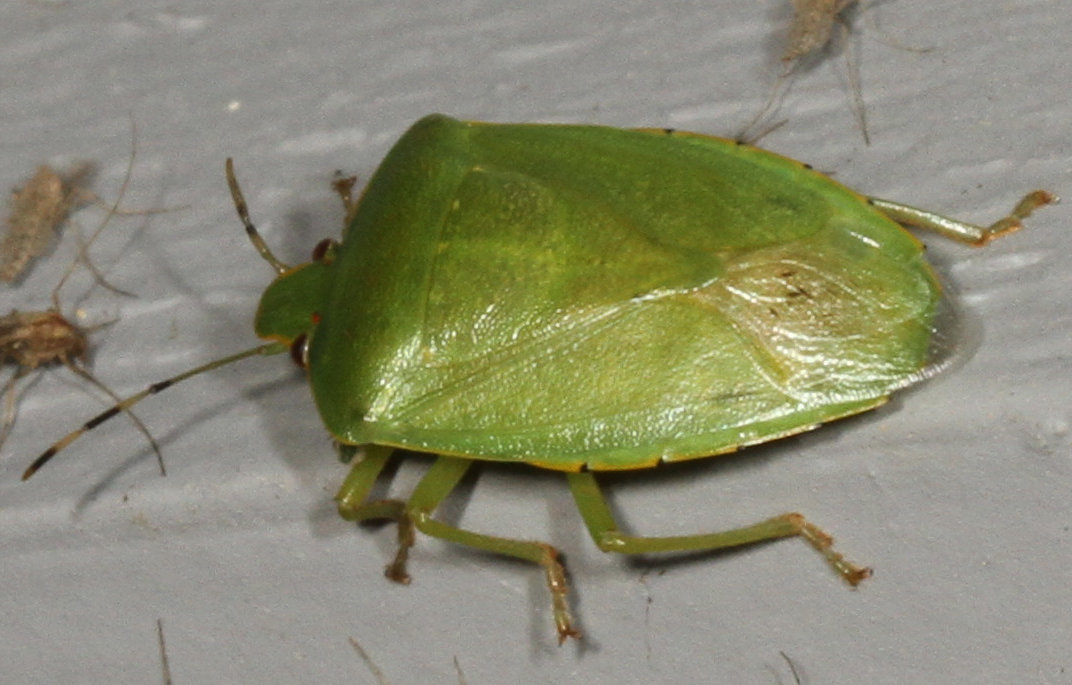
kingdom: Animalia
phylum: Arthropoda
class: Insecta
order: Hemiptera
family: Pentatomidae
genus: Chinavia
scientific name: Chinavia hilaris
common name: Green stink bug
